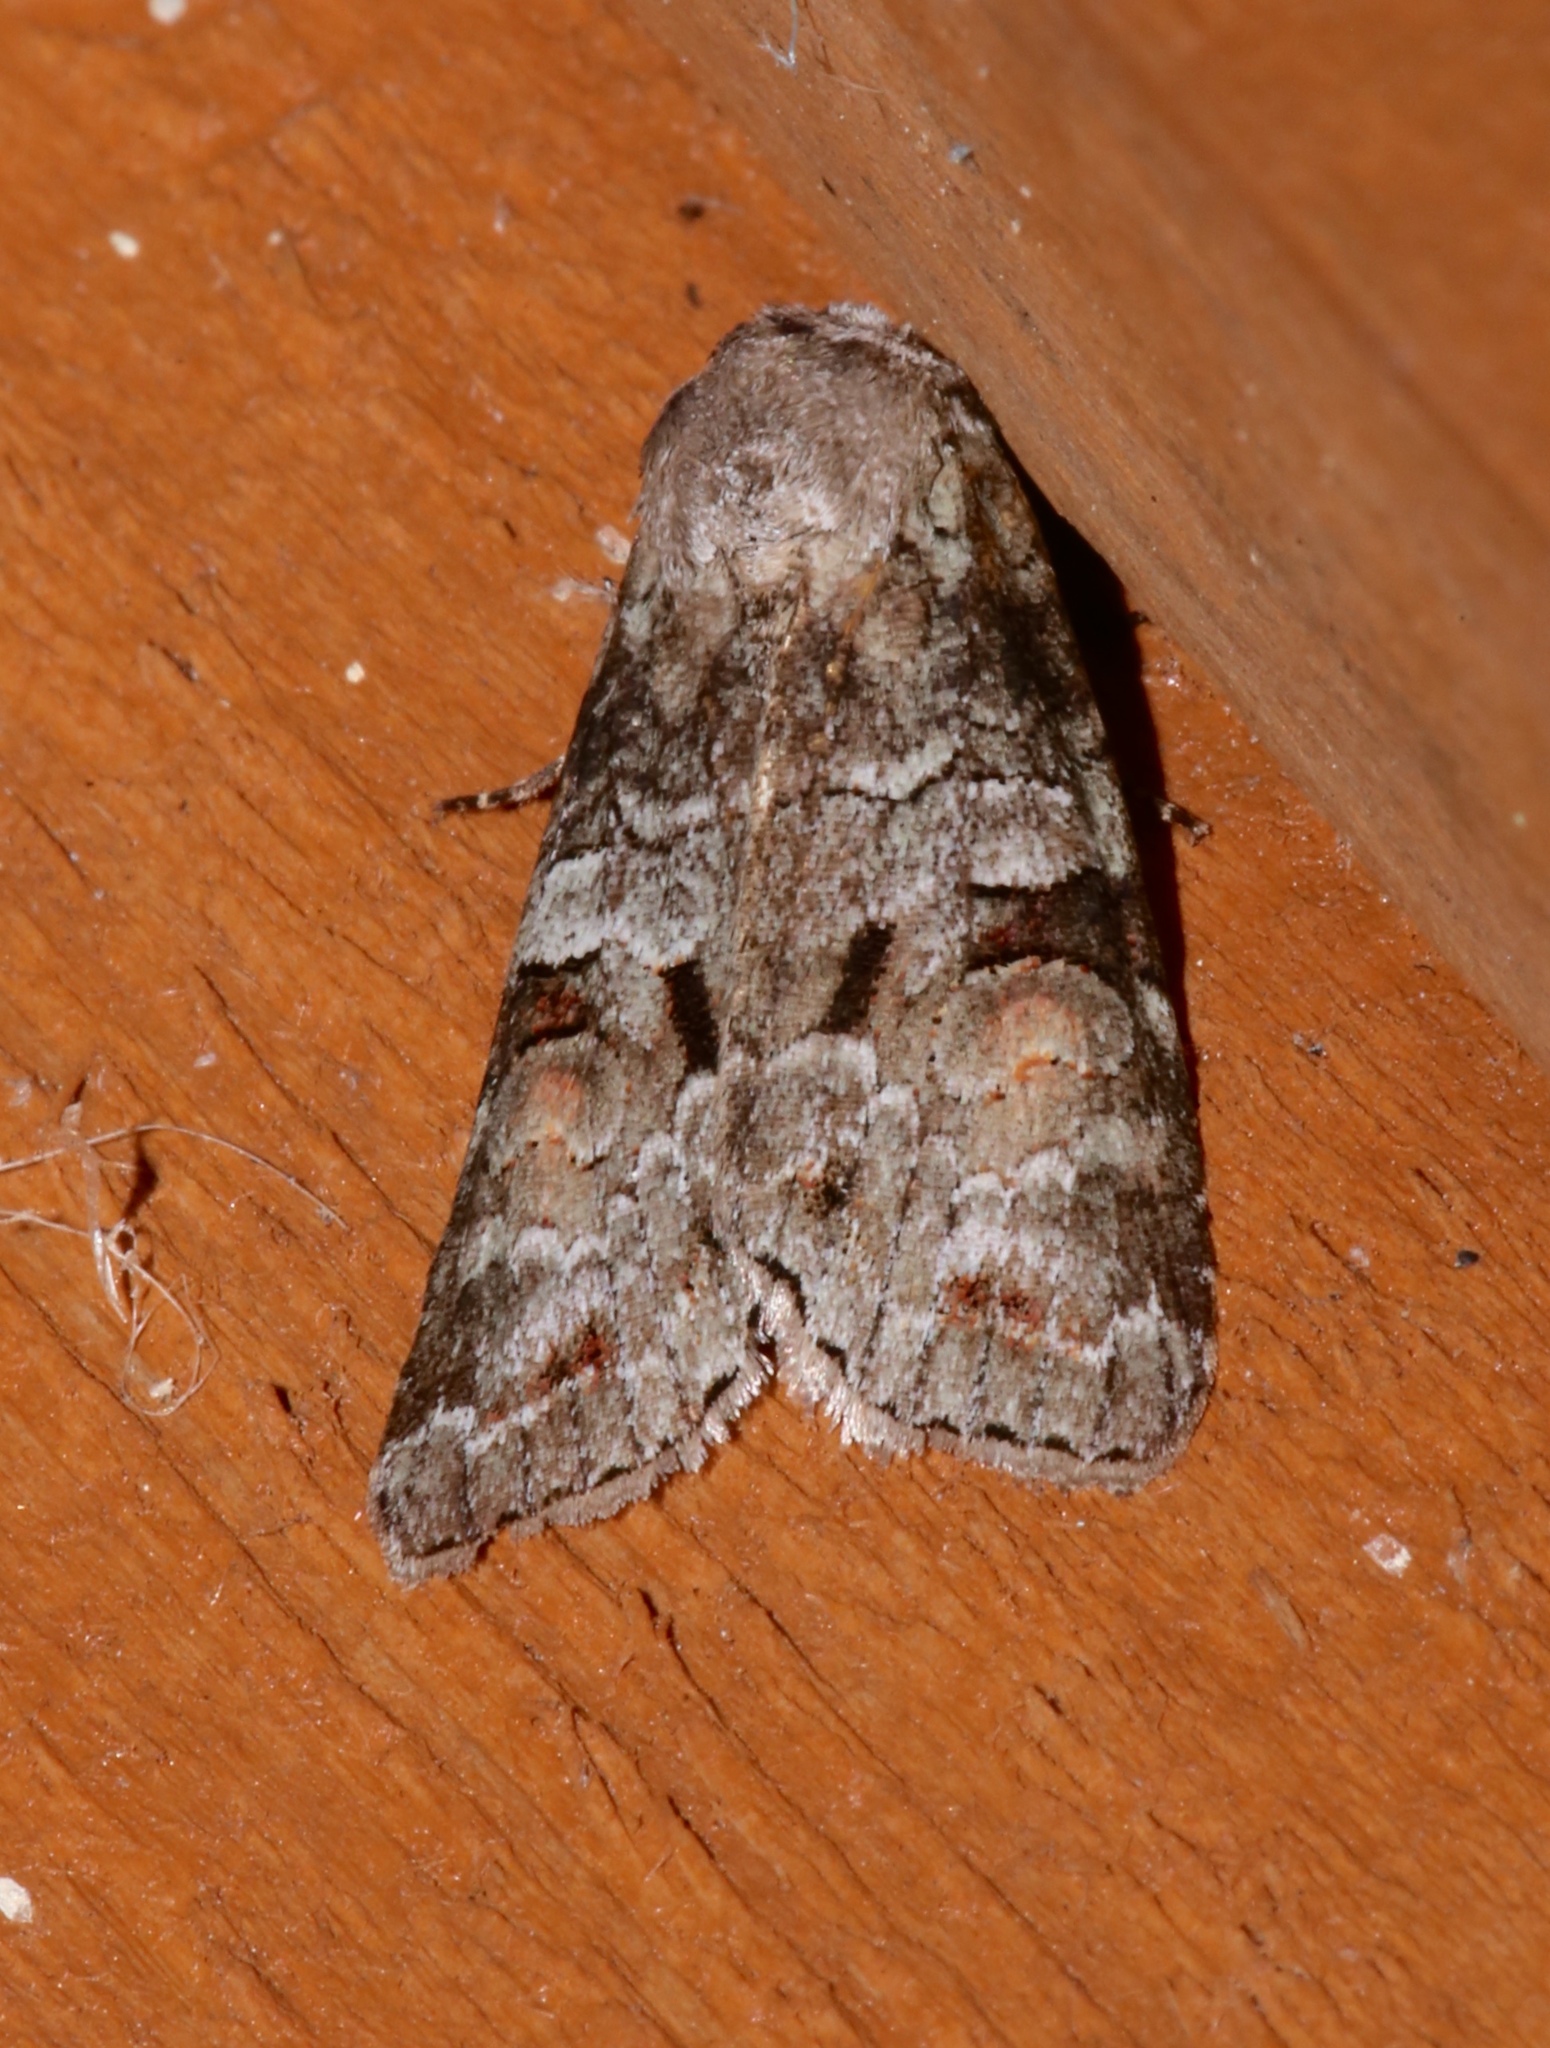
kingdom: Animalia
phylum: Arthropoda
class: Insecta
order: Lepidoptera
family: Noctuidae
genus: Egira
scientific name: Egira alternans
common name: Alternate woodling
